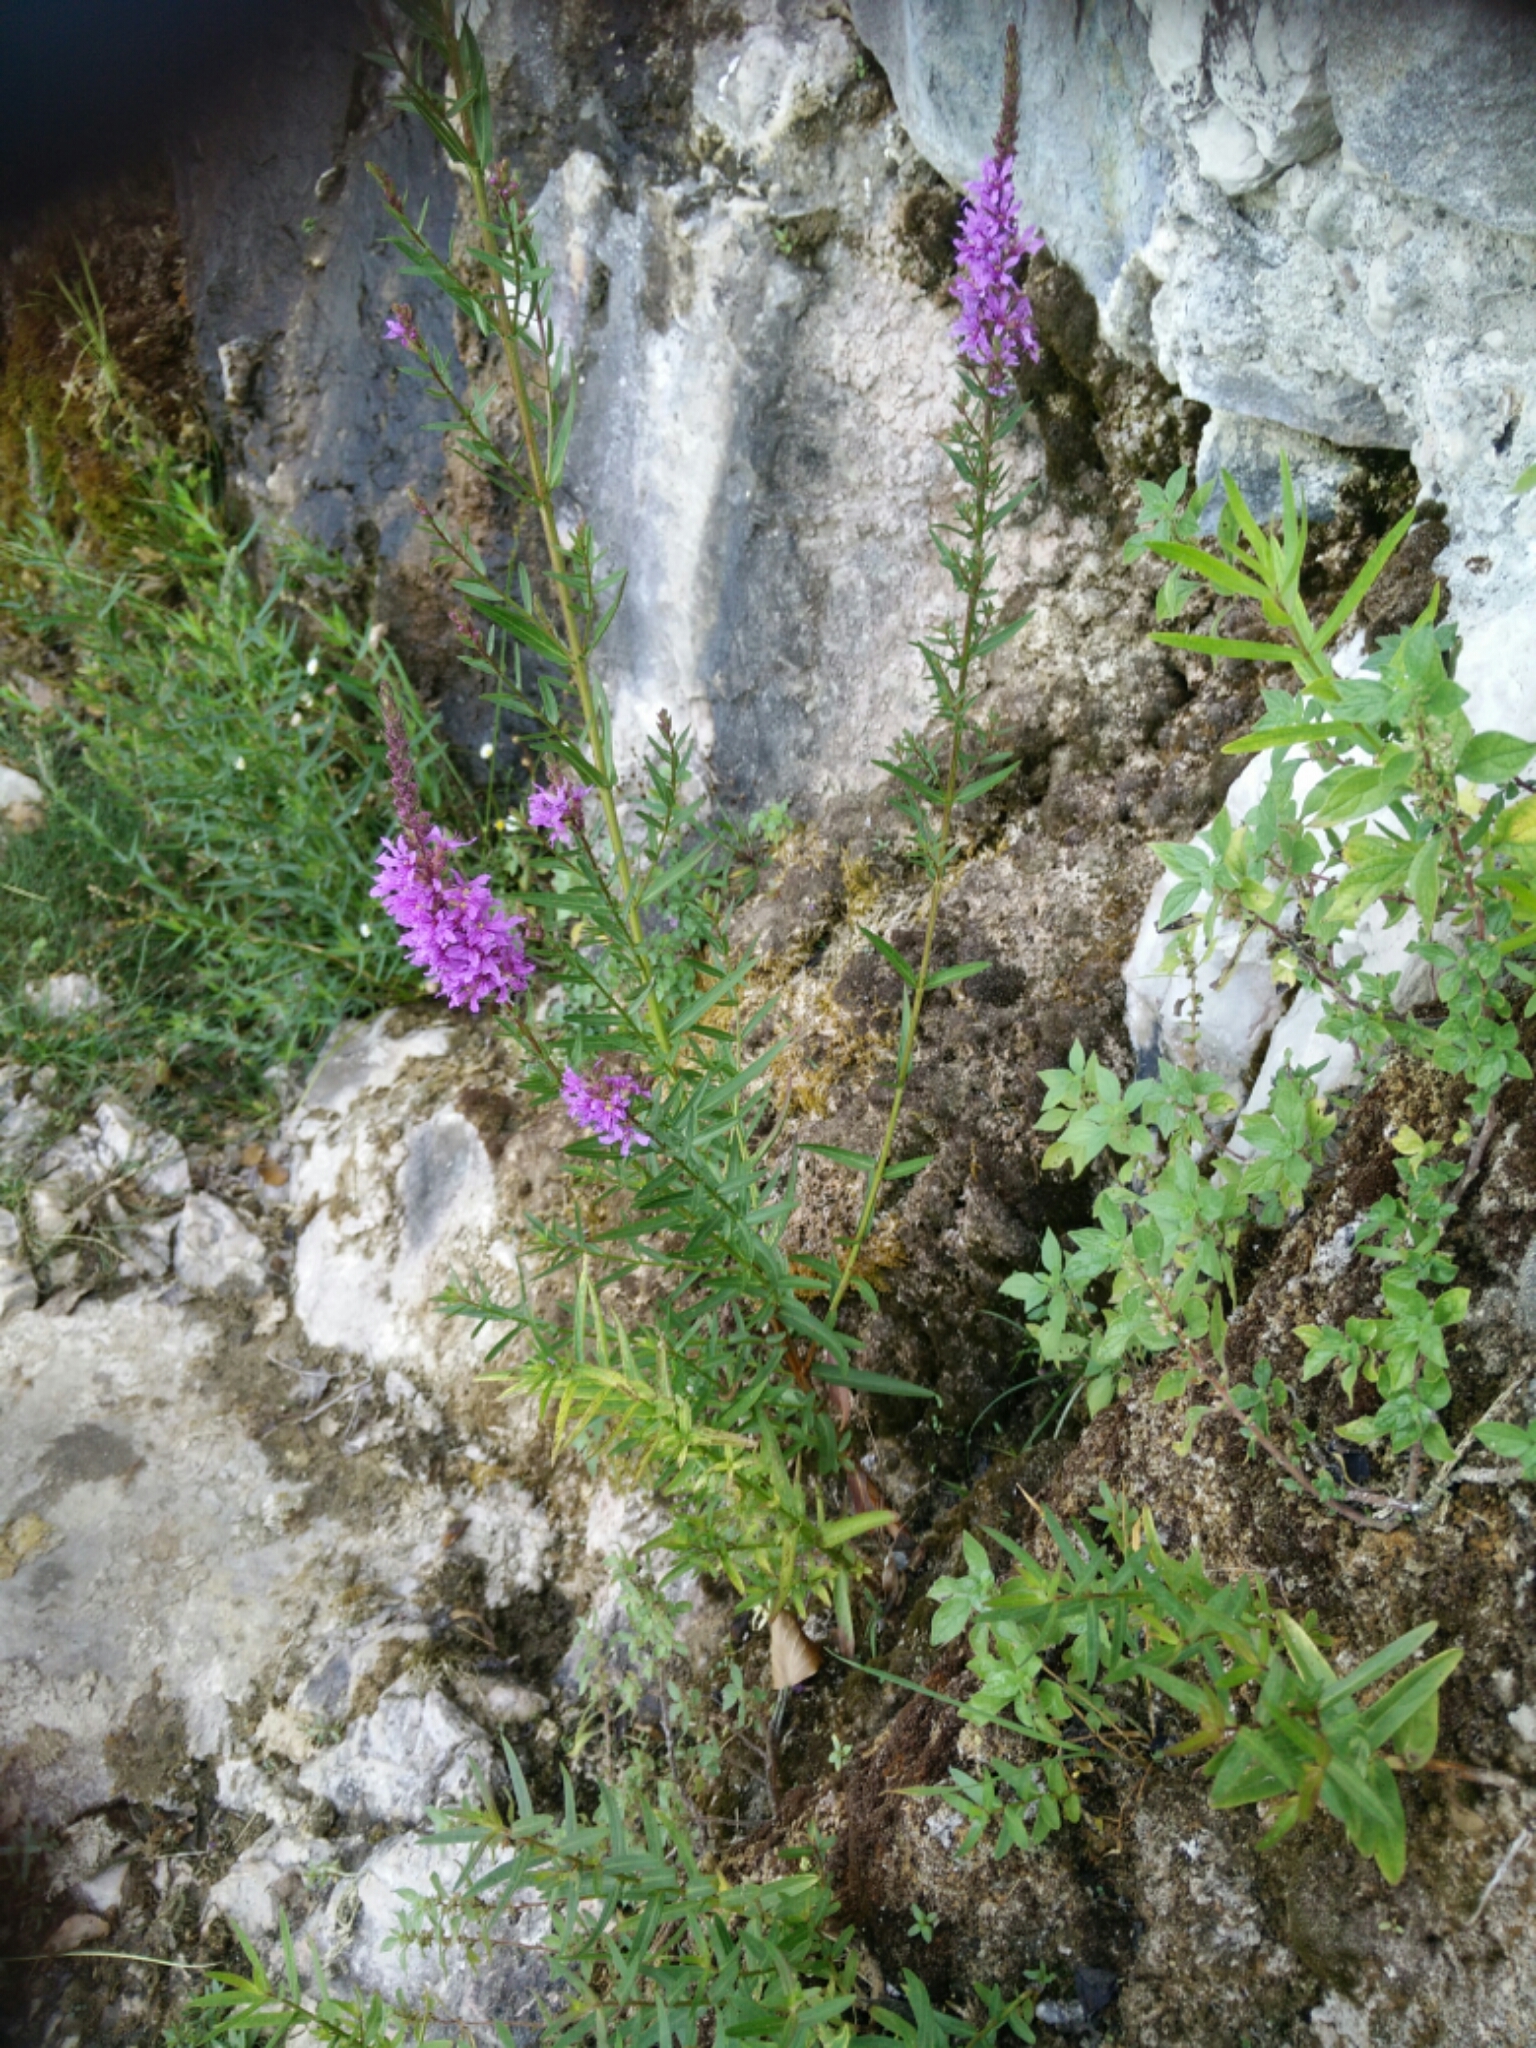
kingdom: Plantae
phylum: Tracheophyta
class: Magnoliopsida
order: Myrtales
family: Lythraceae
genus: Lythrum
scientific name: Lythrum salicaria
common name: Purple loosestrife
